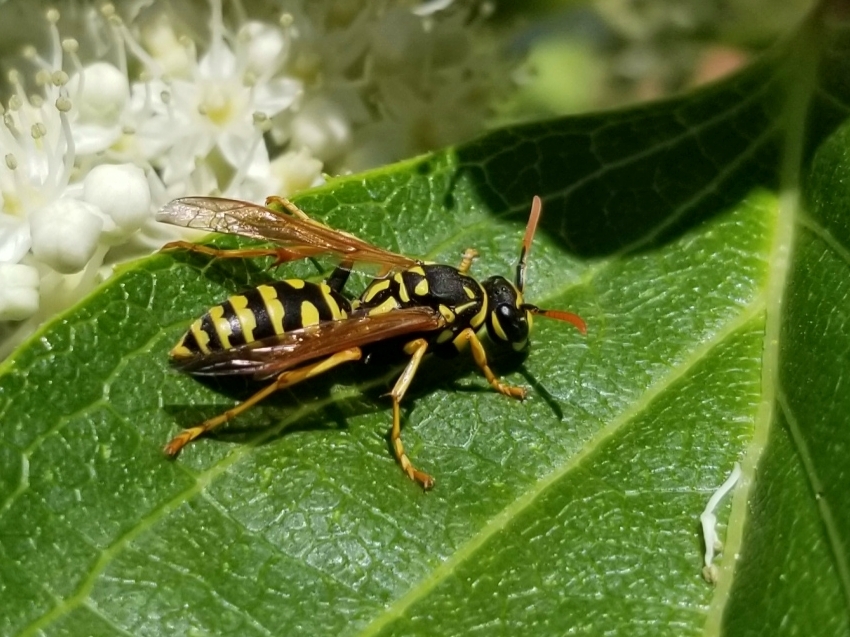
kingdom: Animalia
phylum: Arthropoda
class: Insecta
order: Hymenoptera
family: Eumenidae
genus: Polistes
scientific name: Polistes dominula
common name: Paper wasp
